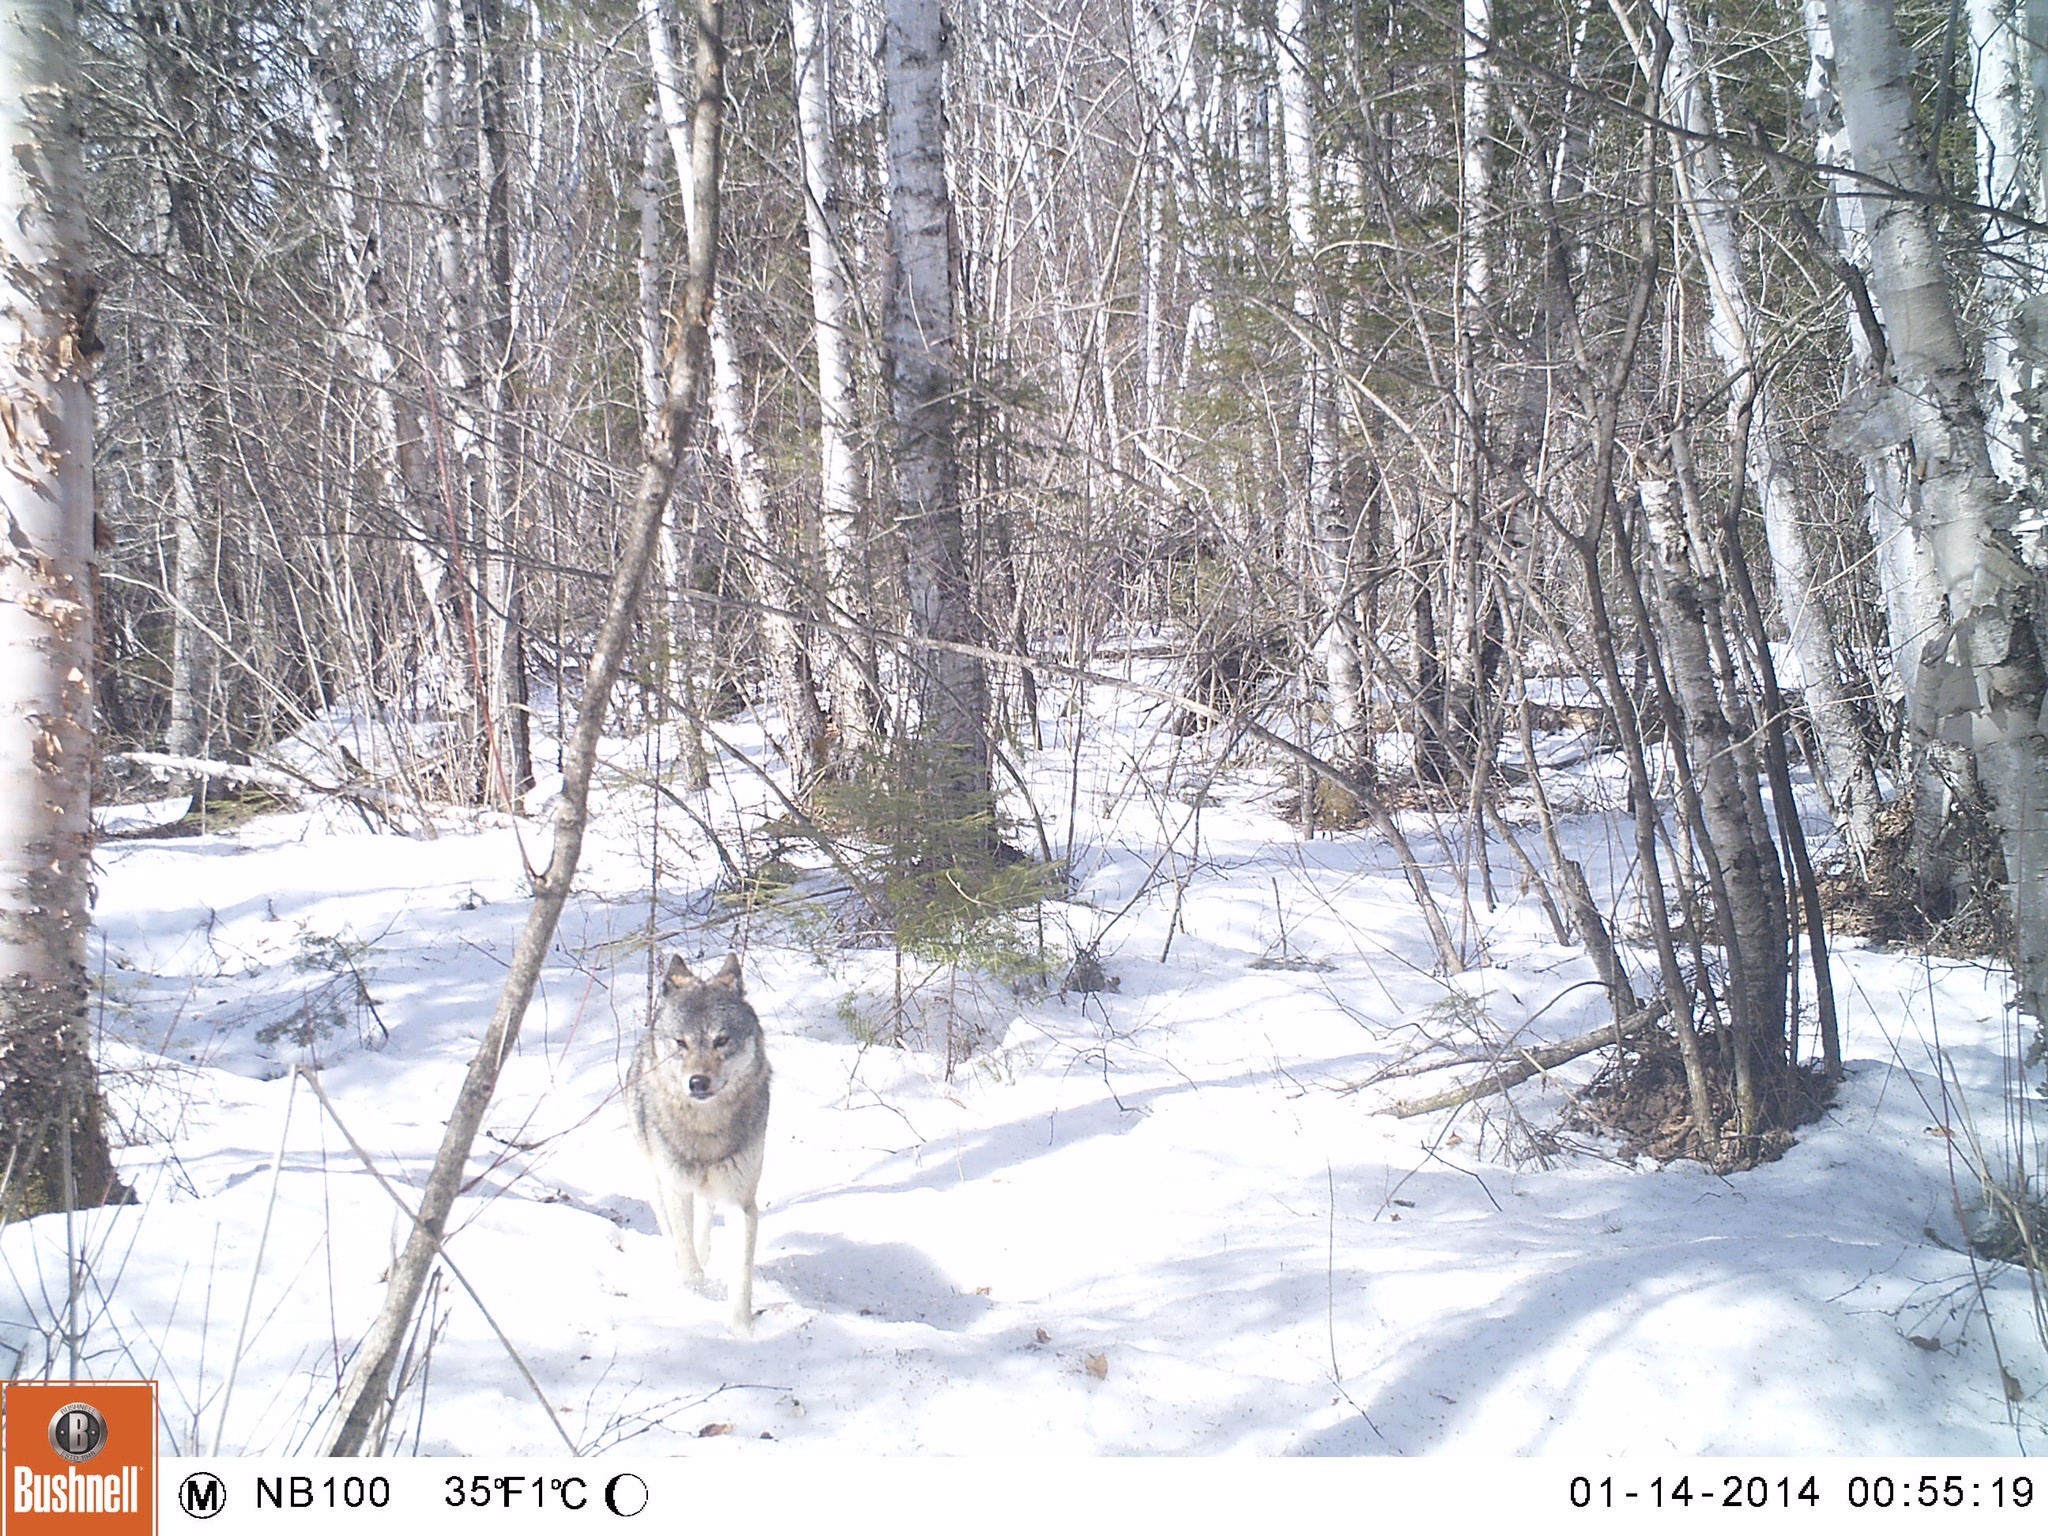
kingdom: Animalia
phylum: Chordata
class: Mammalia
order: Carnivora
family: Canidae
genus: Canis
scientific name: Canis lupus
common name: Gray wolf
